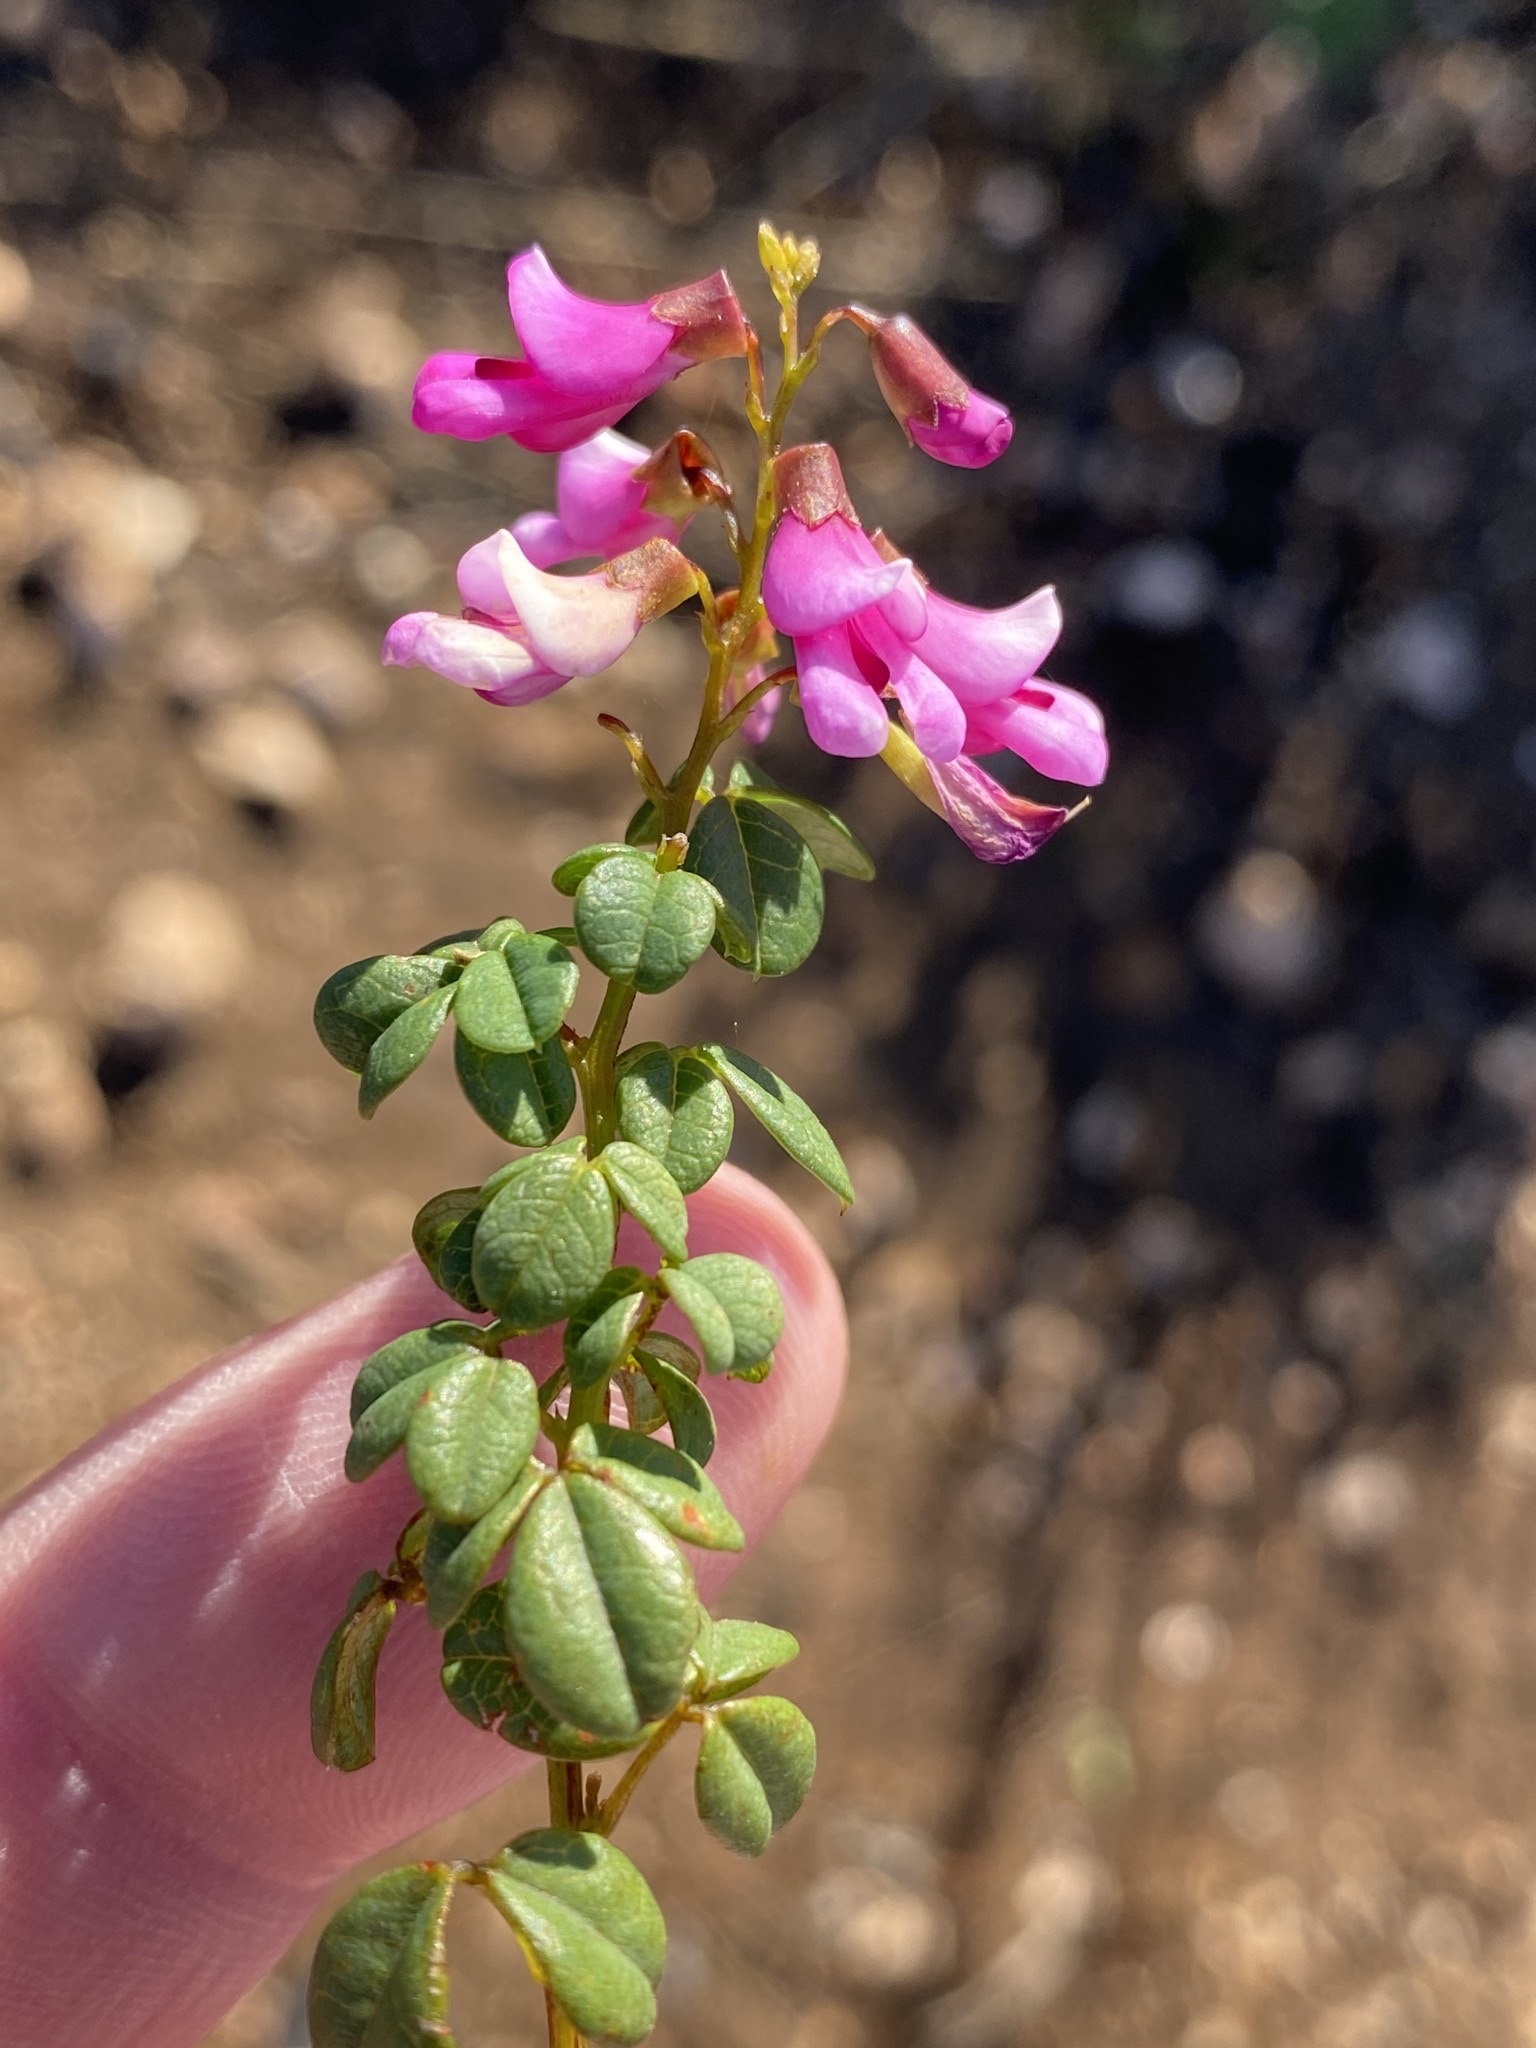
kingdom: Plantae
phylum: Tracheophyta
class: Magnoliopsida
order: Fabales
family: Fabaceae
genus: Hypocalyptus
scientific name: Hypocalyptus oxalidifolius
